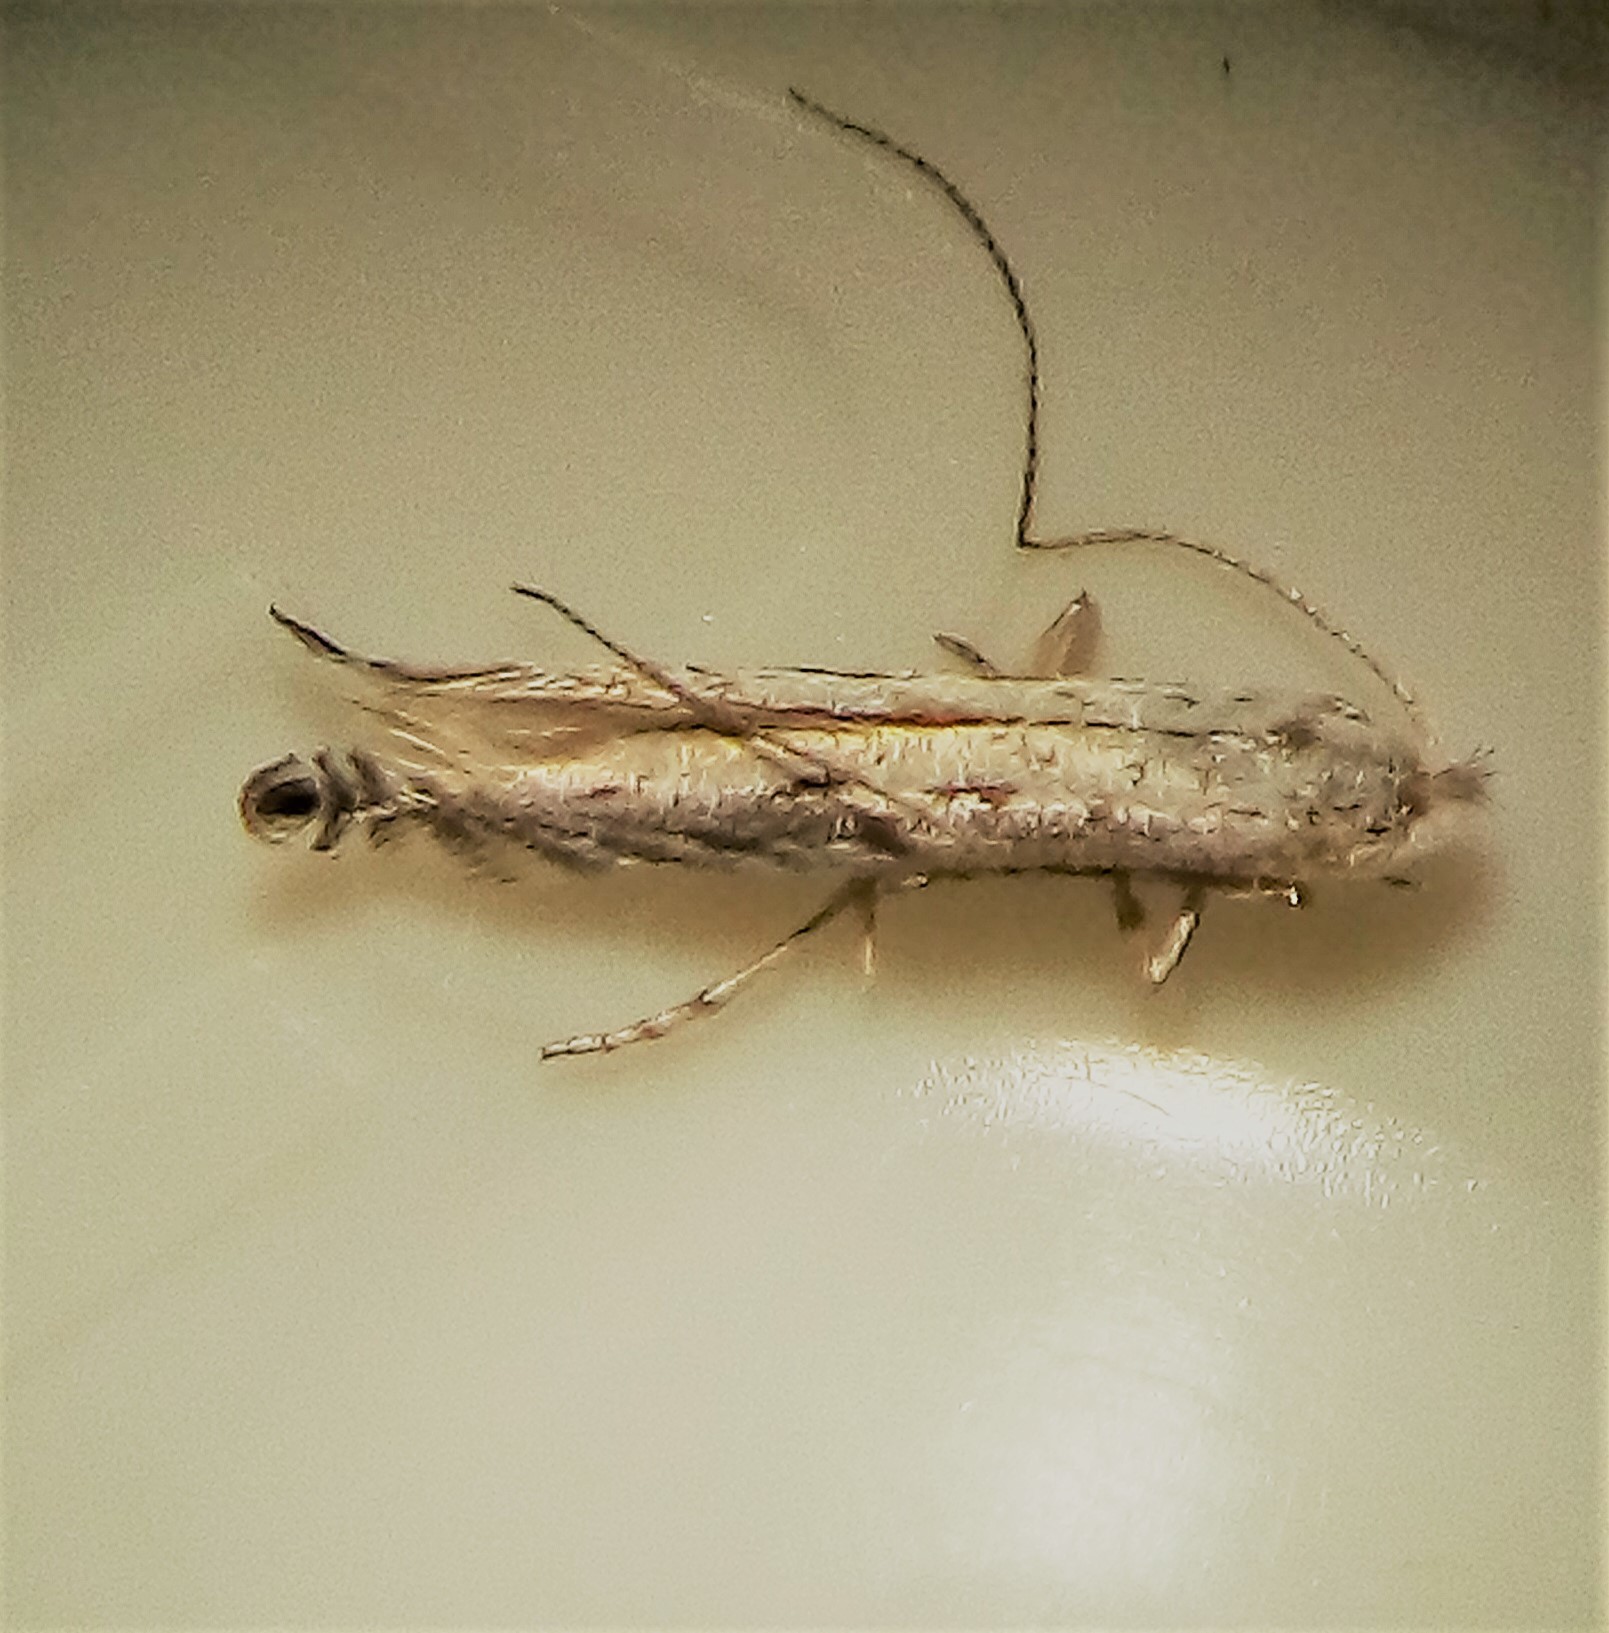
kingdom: Animalia
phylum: Arthropoda
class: Insecta
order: Lepidoptera
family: Lyonetiidae
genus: Stegommata
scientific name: Stegommata leptomitella
